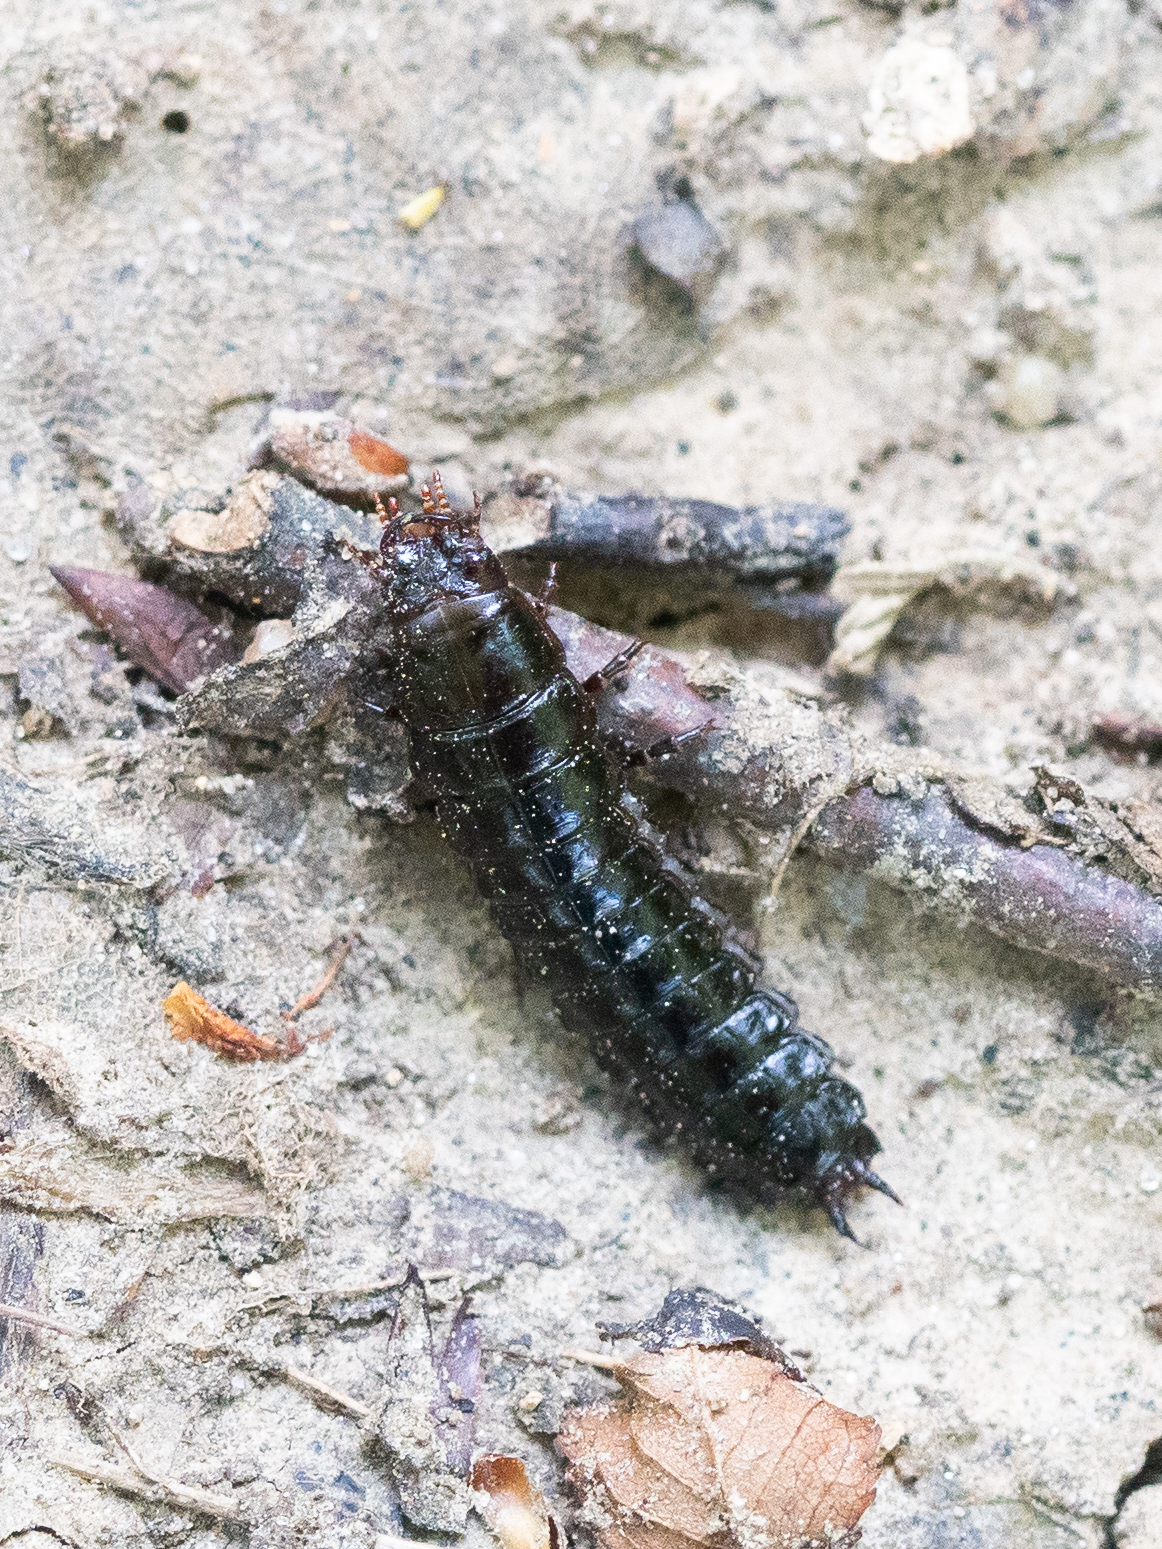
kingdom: Animalia
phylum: Arthropoda
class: Insecta
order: Coleoptera
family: Carabidae
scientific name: Carabidae
